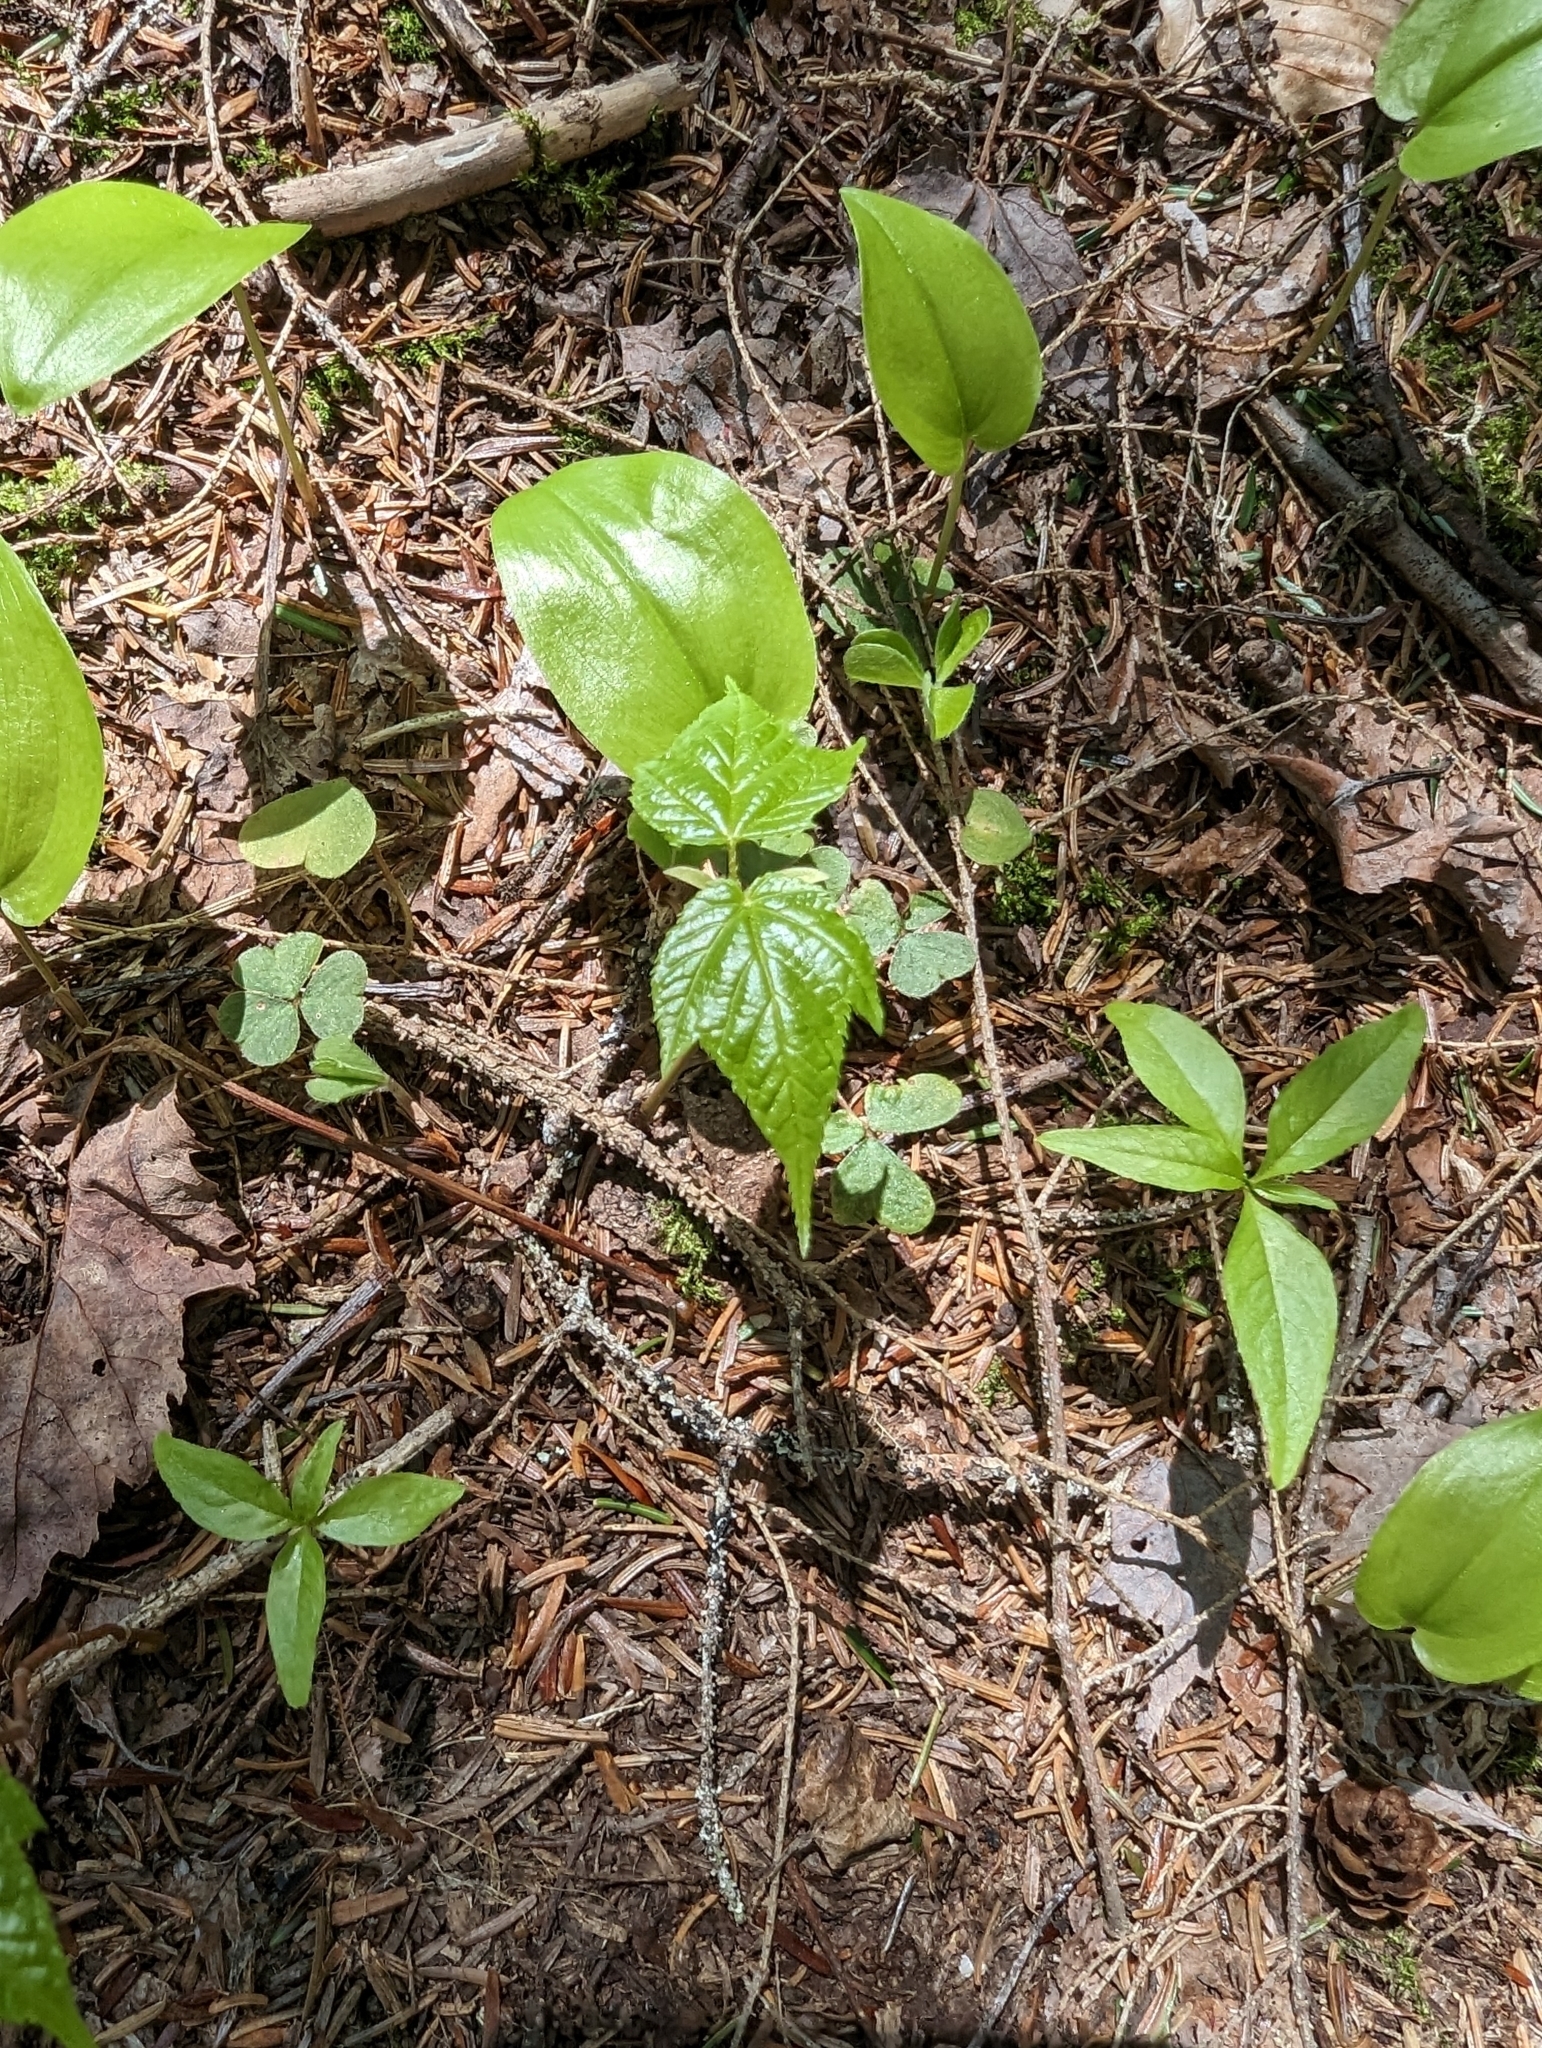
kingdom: Plantae
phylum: Tracheophyta
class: Magnoliopsida
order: Sapindales
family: Sapindaceae
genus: Acer
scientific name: Acer pensylvanicum
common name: Moosewood
